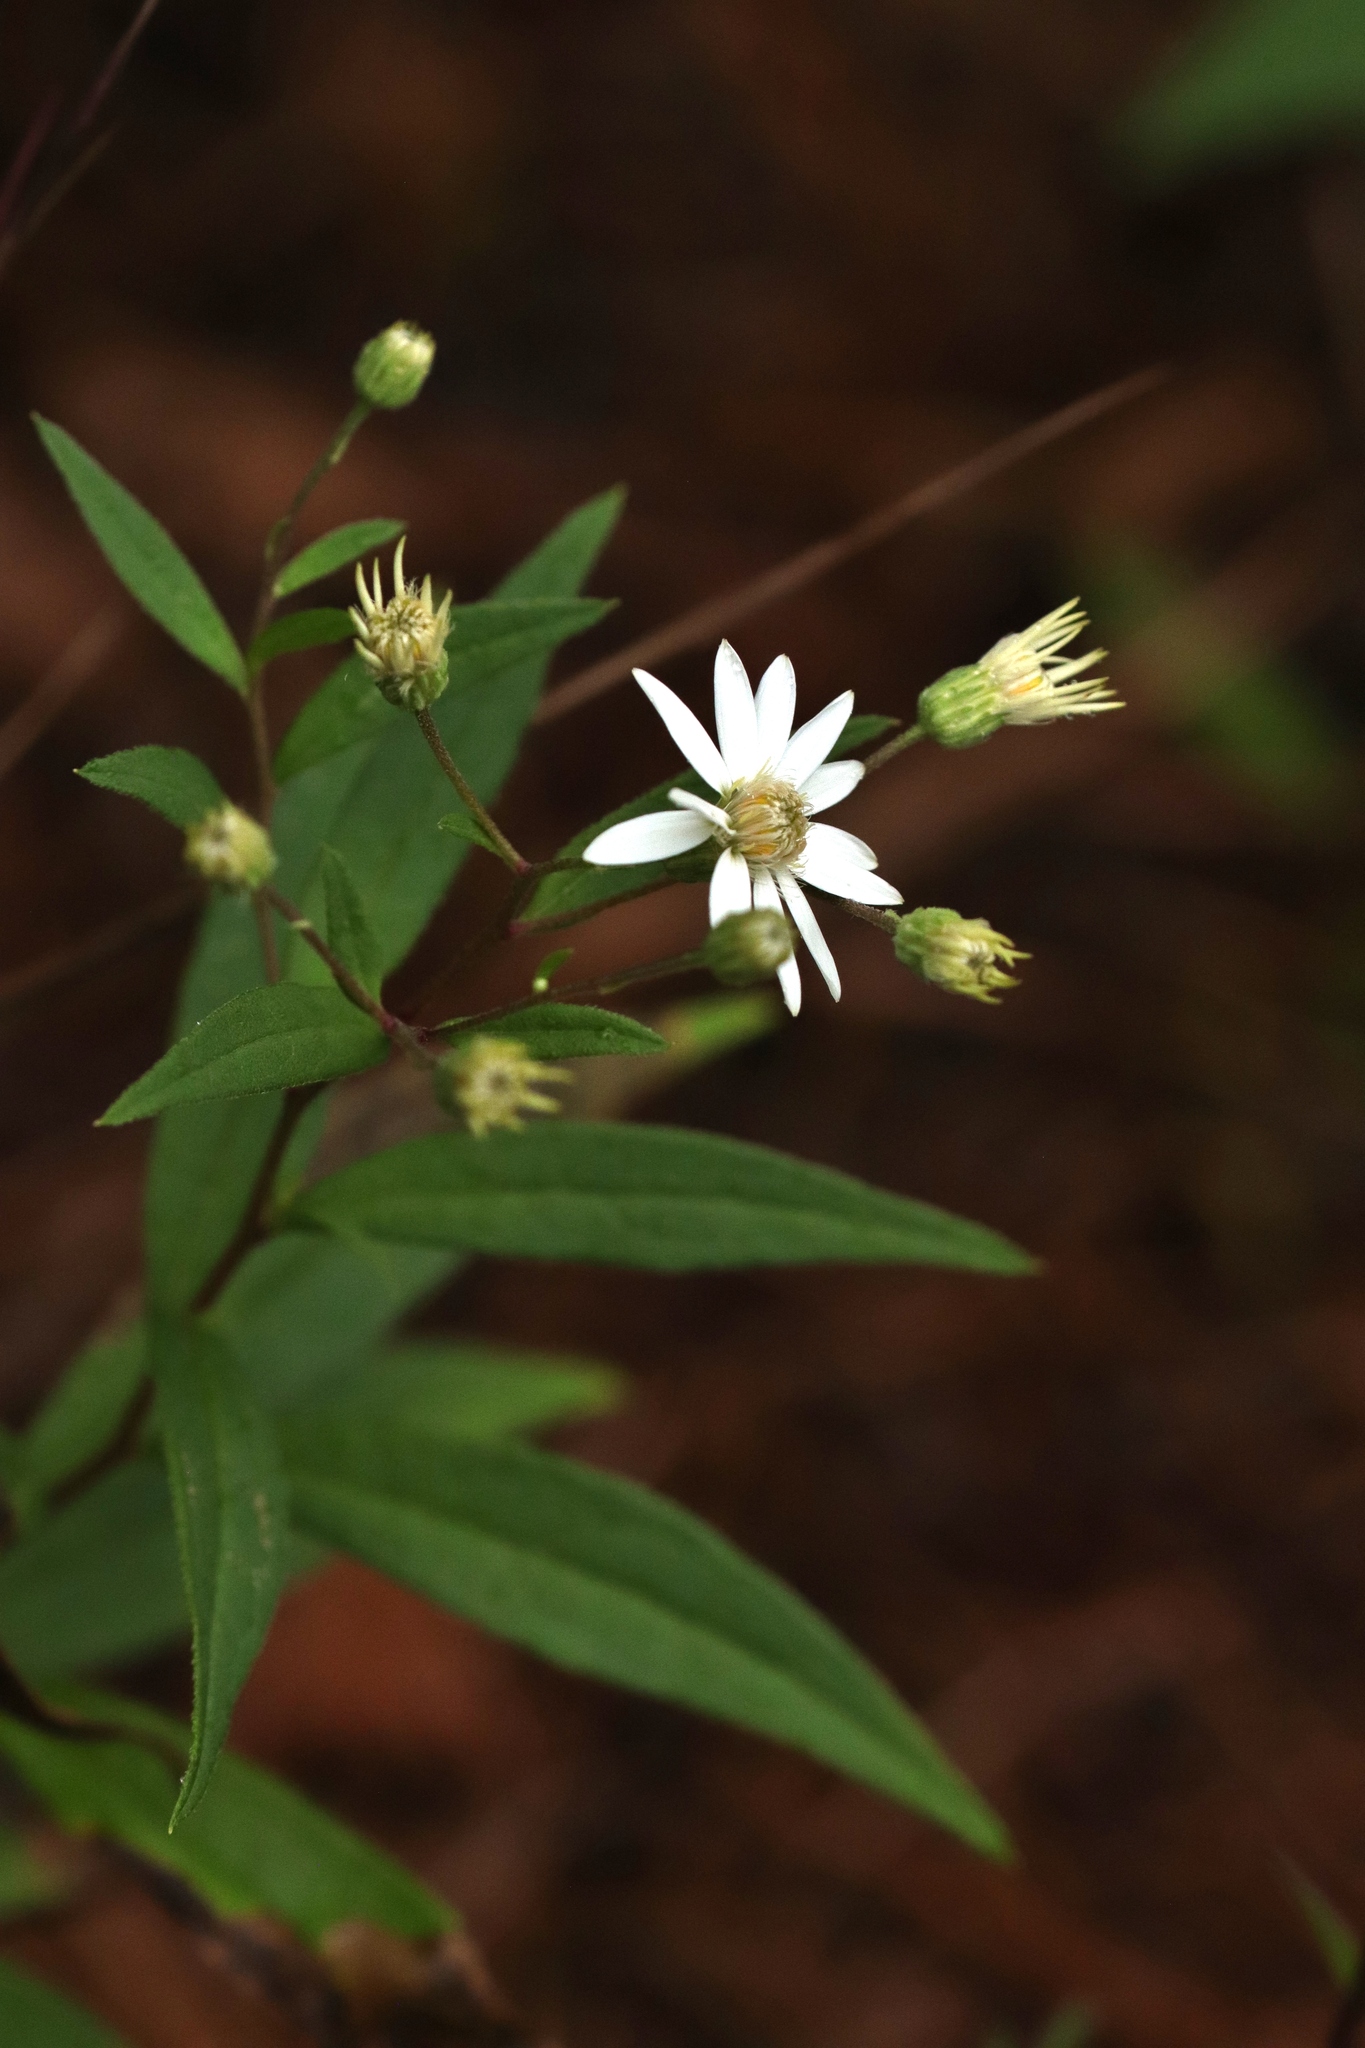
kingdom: Plantae
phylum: Tracheophyta
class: Magnoliopsida
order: Asterales
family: Asteraceae
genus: Doellingeria
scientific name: Doellingeria umbellata
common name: Flat-top white aster
